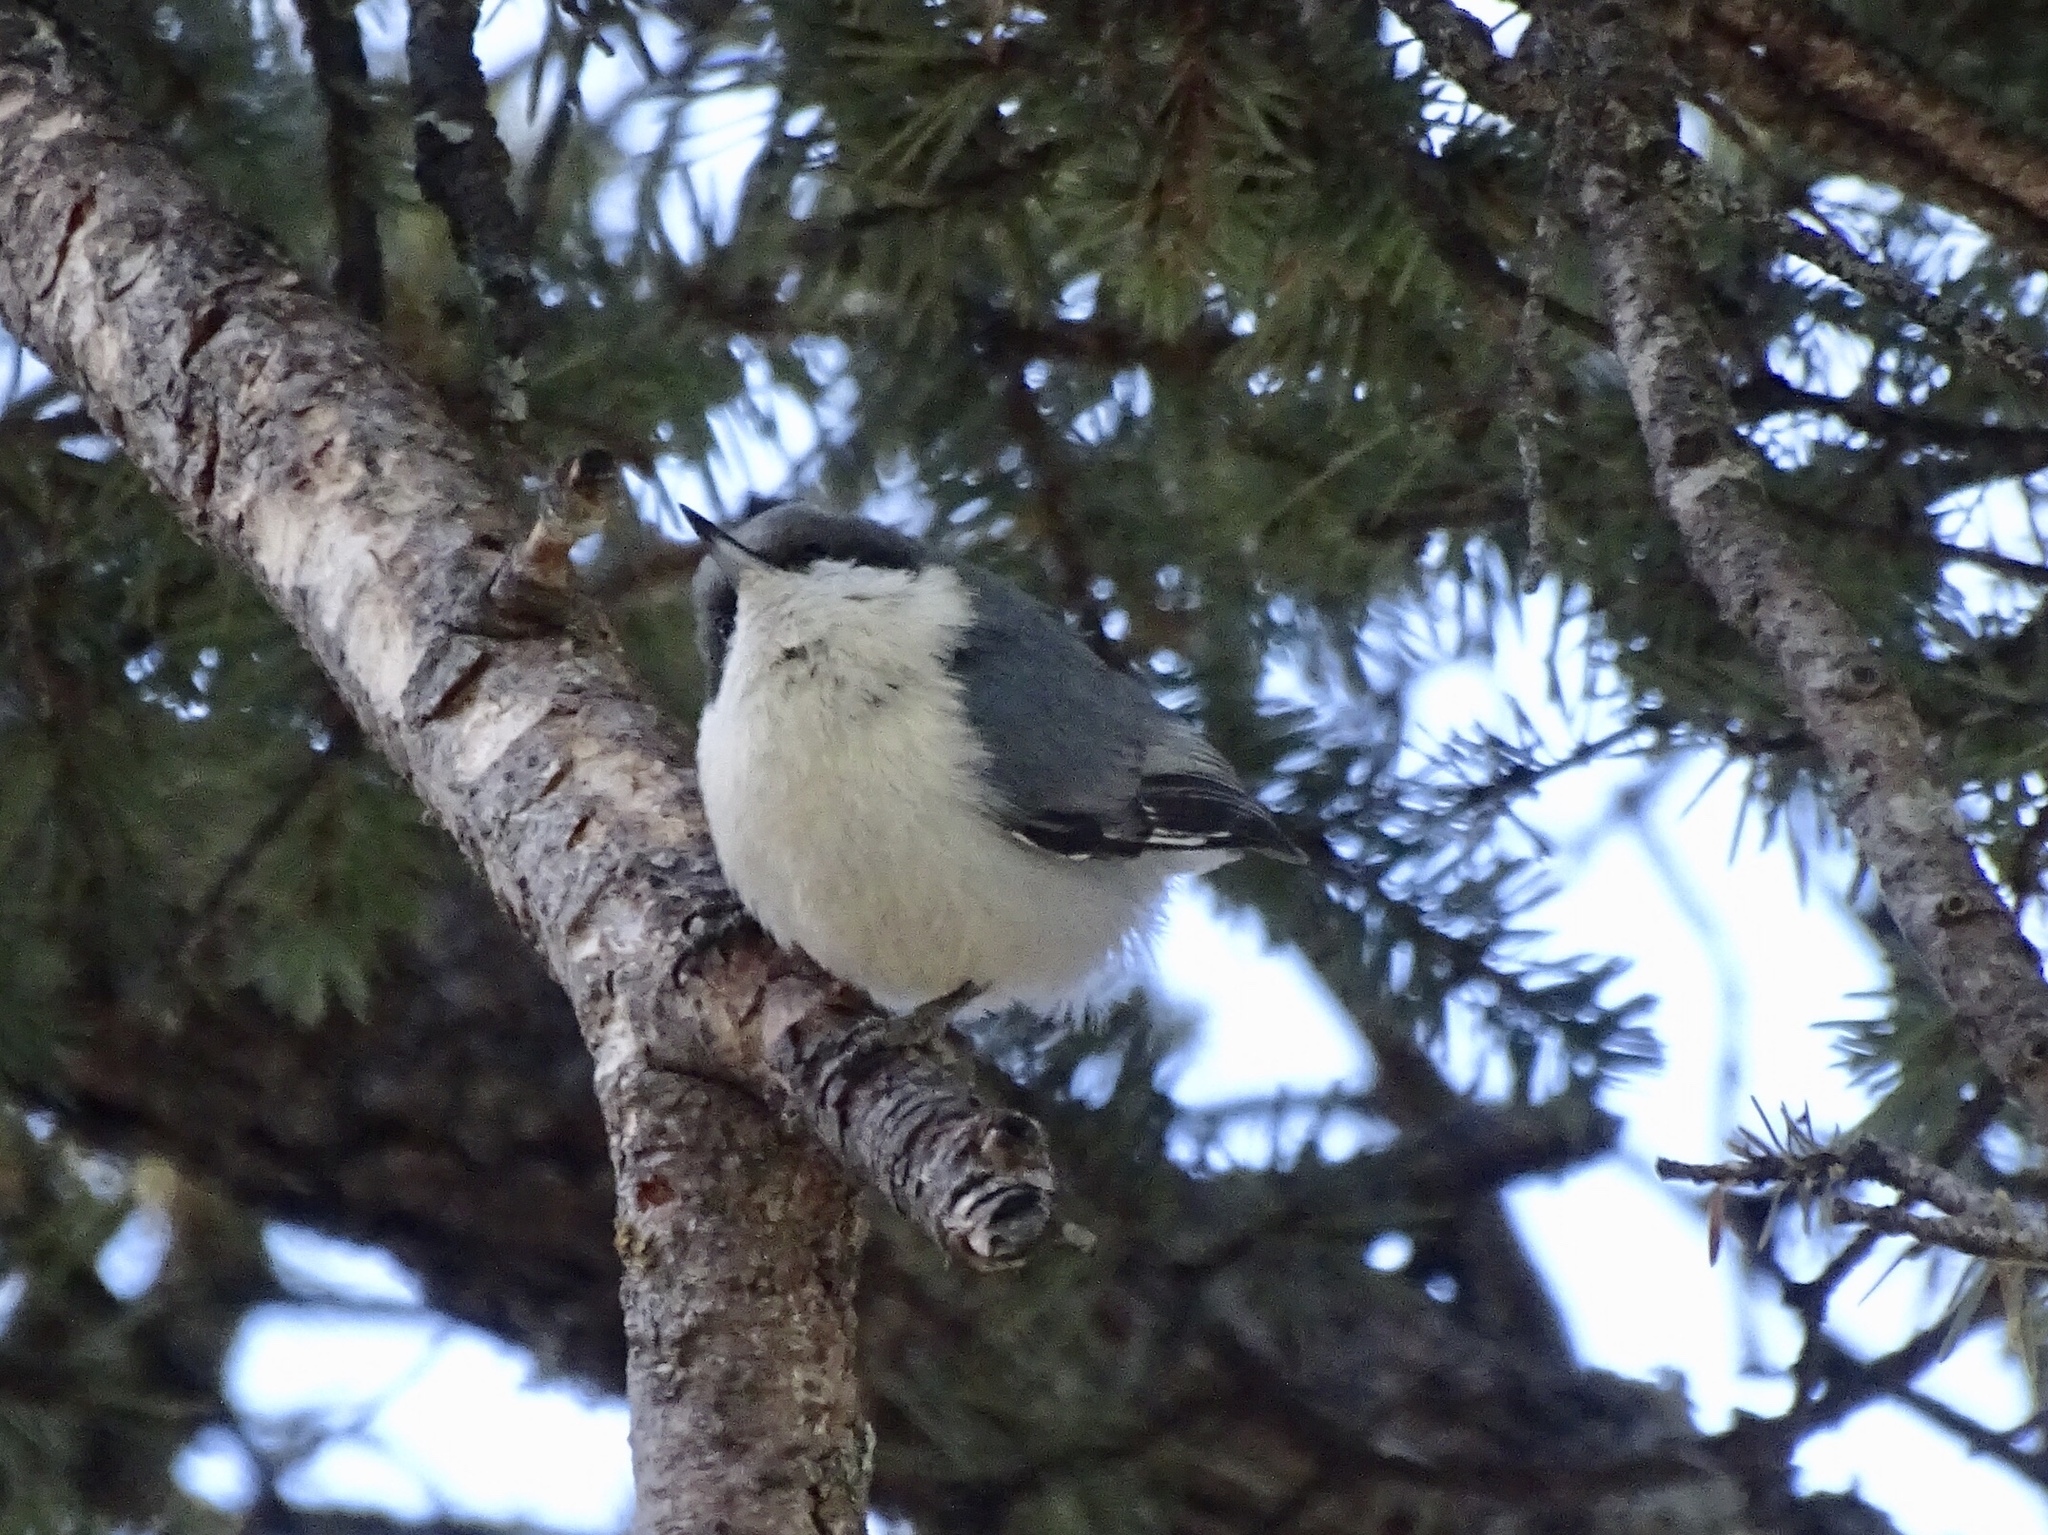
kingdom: Animalia
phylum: Chordata
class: Aves
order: Passeriformes
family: Sittidae
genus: Sitta
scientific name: Sitta pygmaea
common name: Pygmy nuthatch
